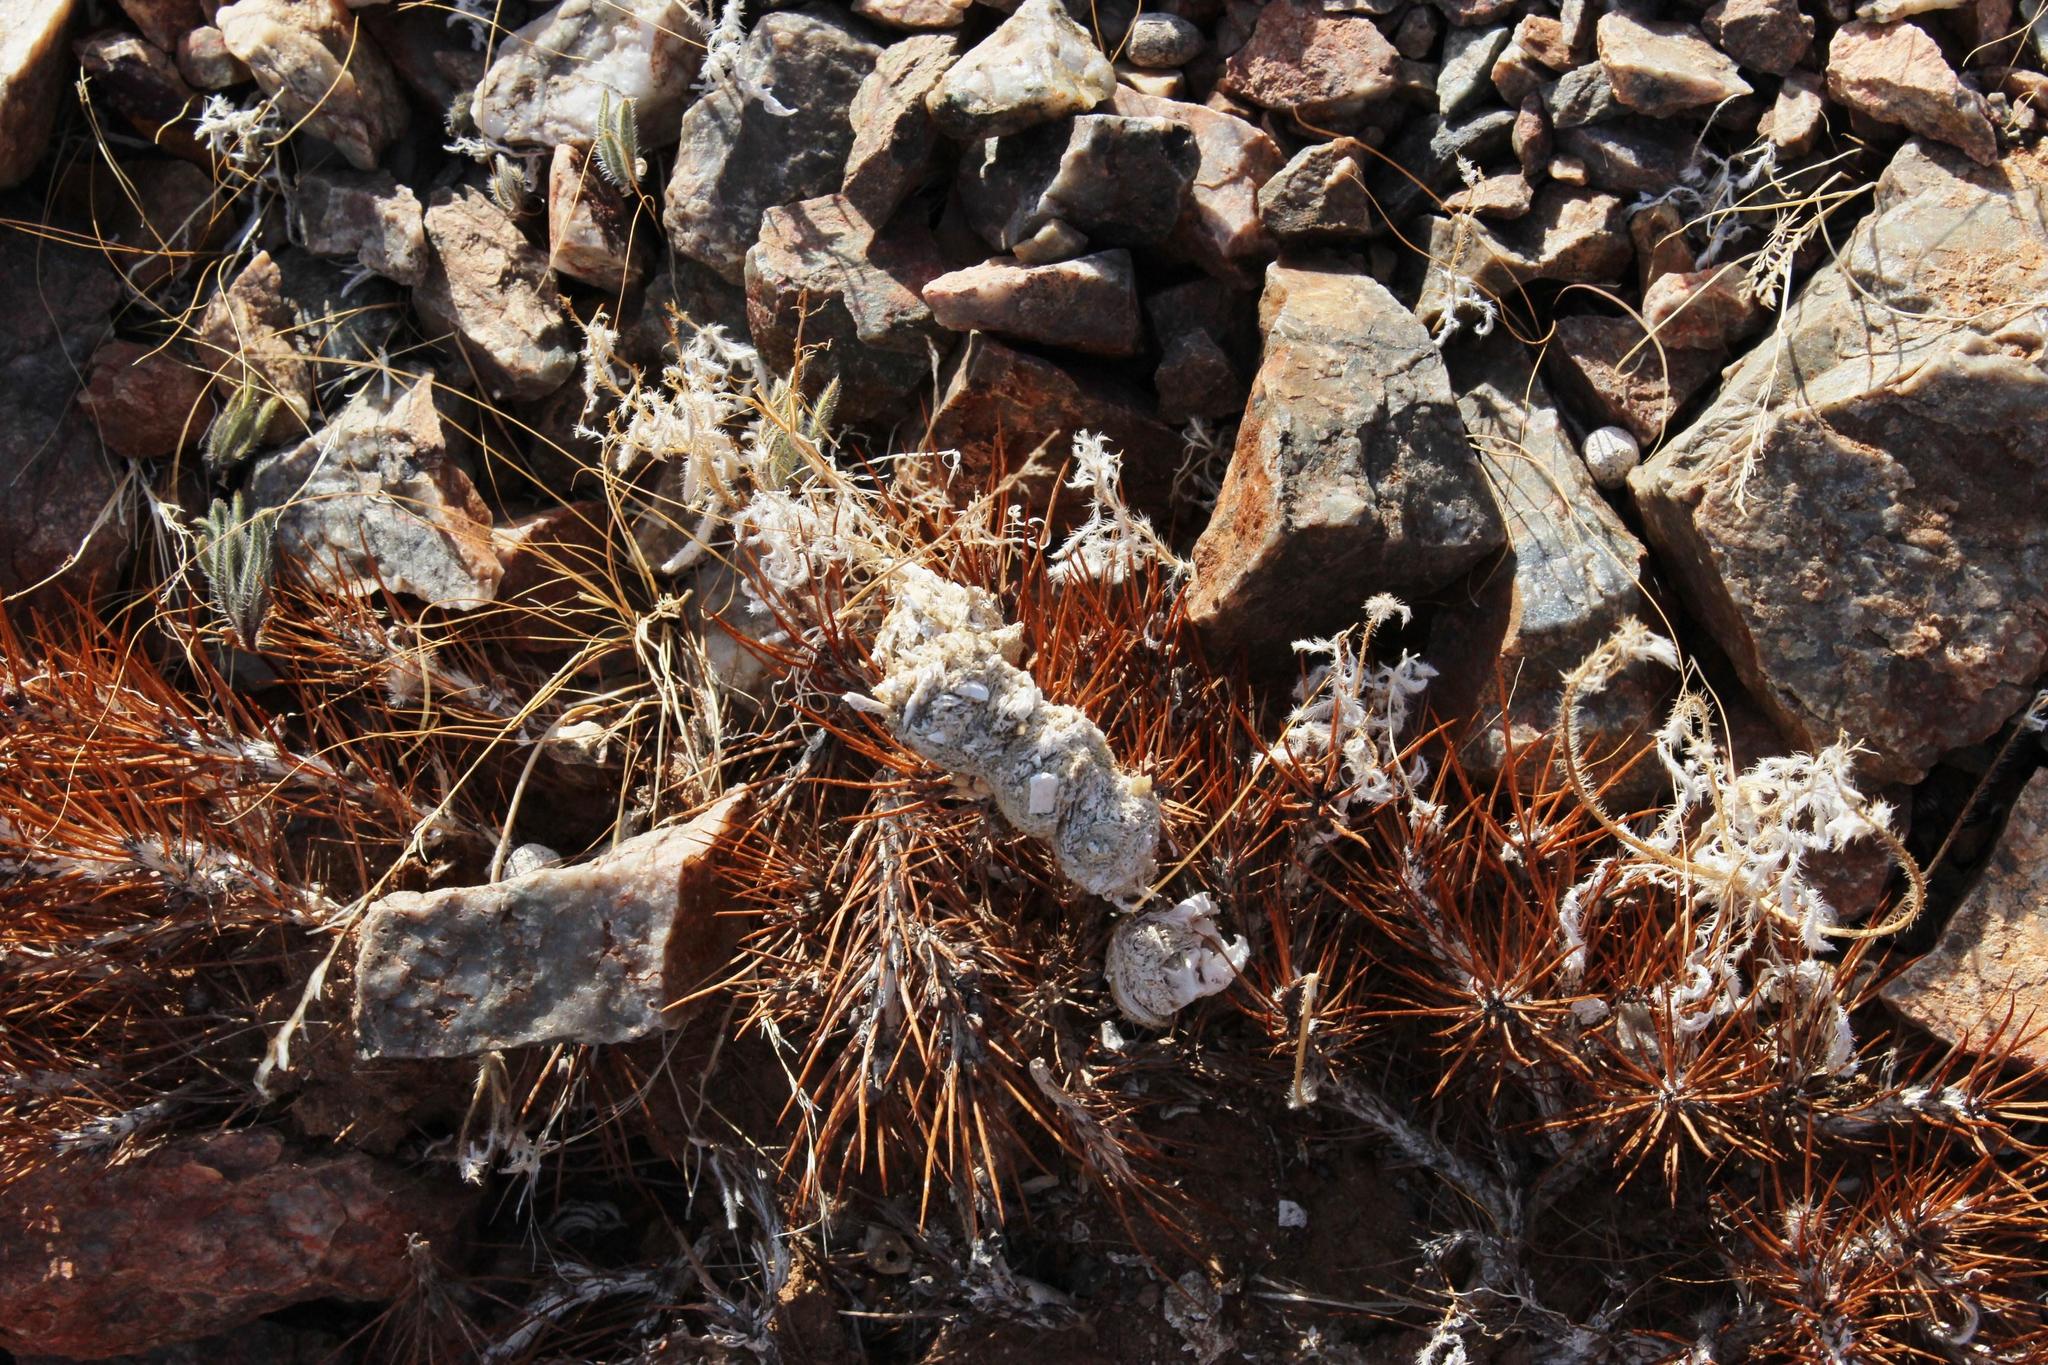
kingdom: Animalia
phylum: Chordata
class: Mammalia
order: Carnivora
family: Felidae
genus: Caracal
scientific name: Caracal caracal
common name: Caracal
